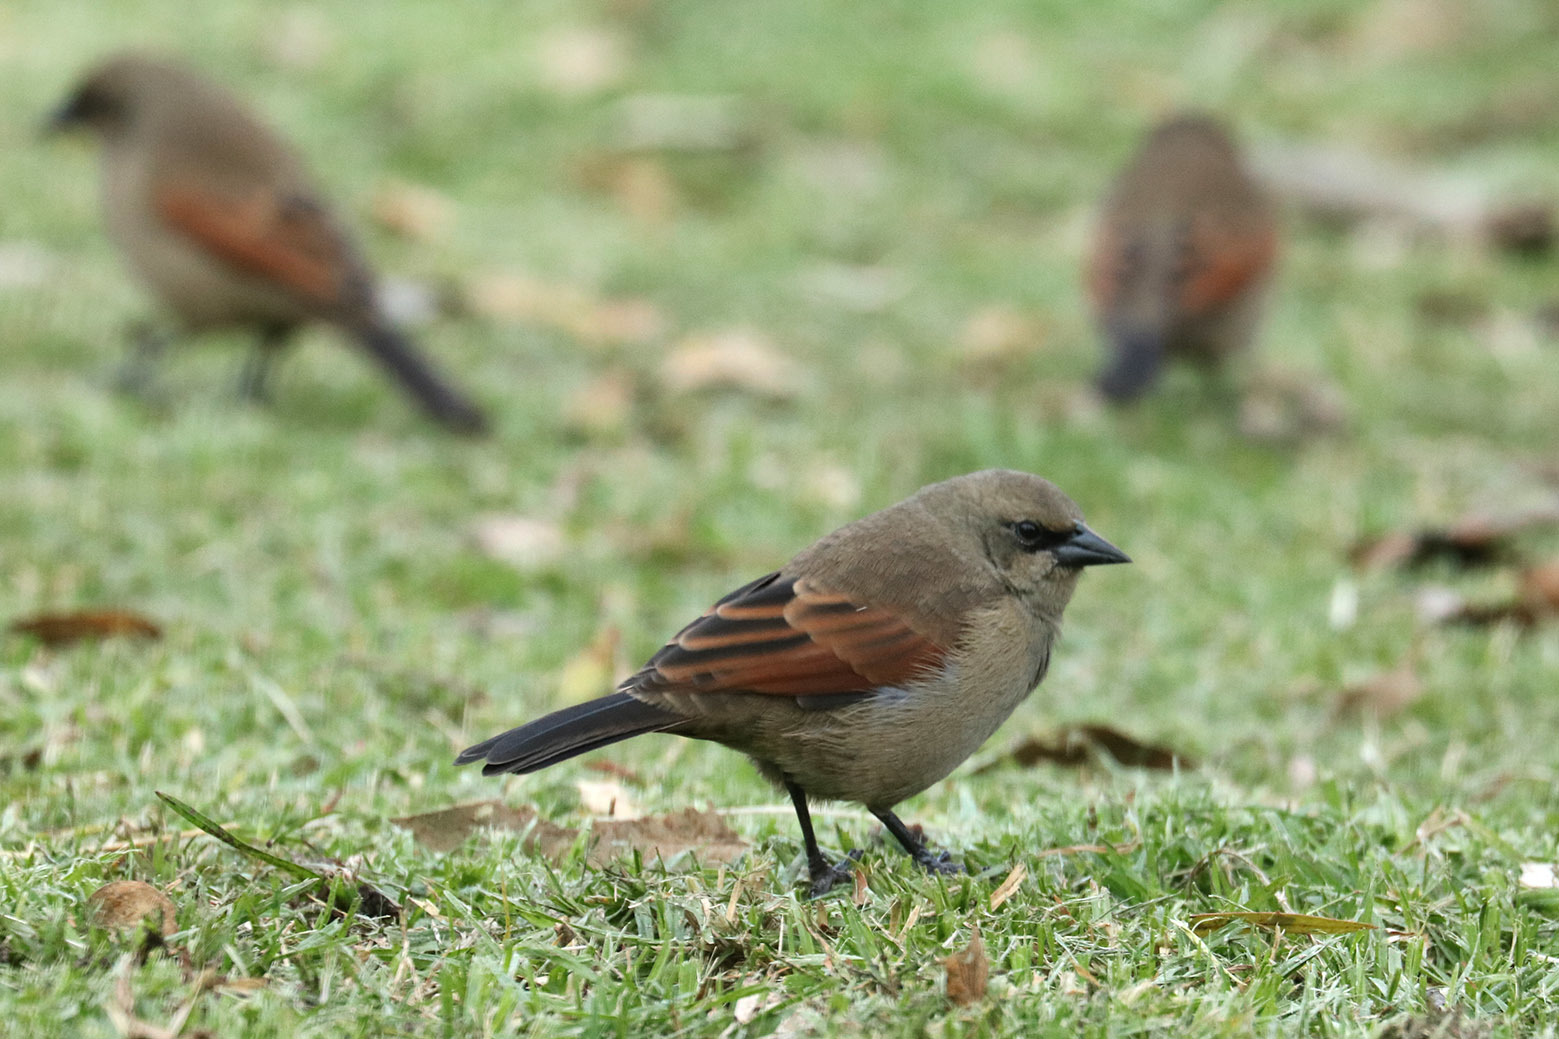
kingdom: Animalia
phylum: Chordata
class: Aves
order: Passeriformes
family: Icteridae
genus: Agelaioides
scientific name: Agelaioides badius
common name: Baywing
